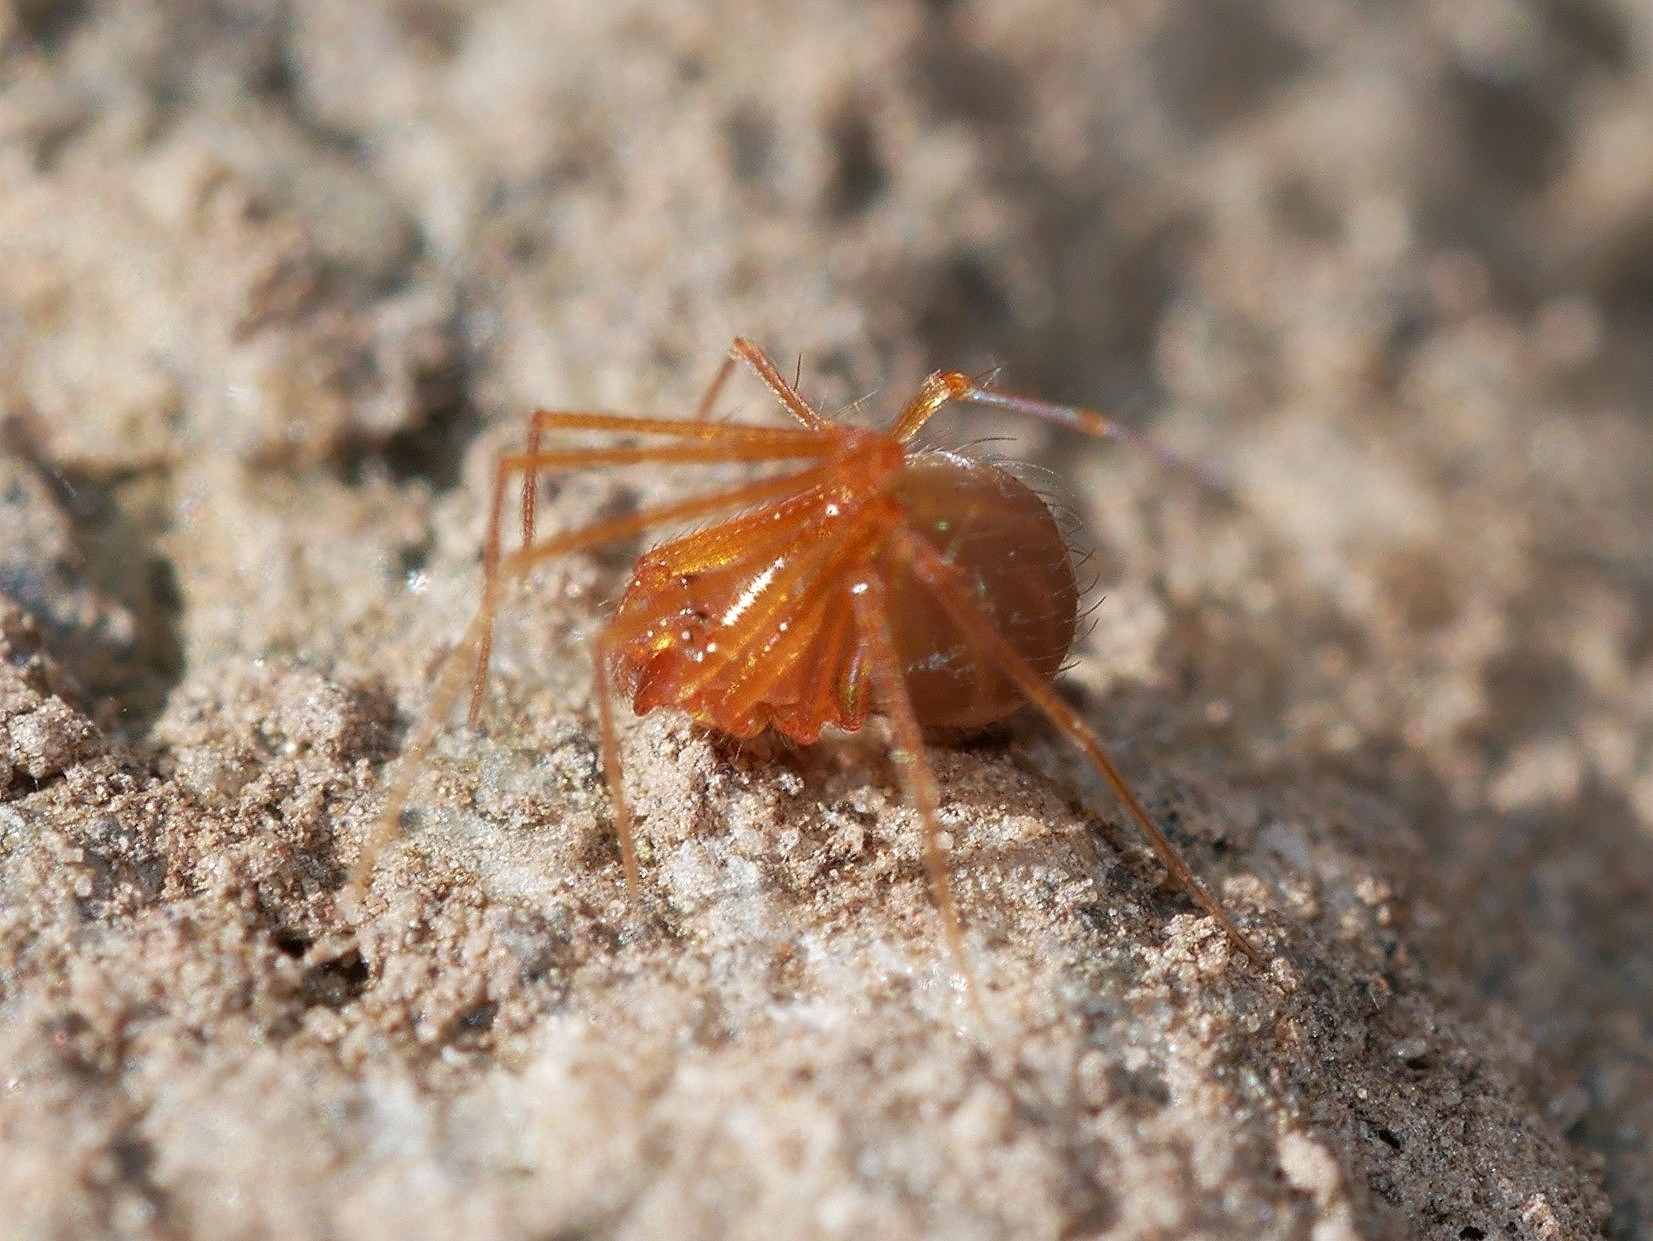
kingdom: Animalia
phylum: Arthropoda
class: Arachnida
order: Araneae
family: Telemidae
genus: Usofila
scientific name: Usofila flava
